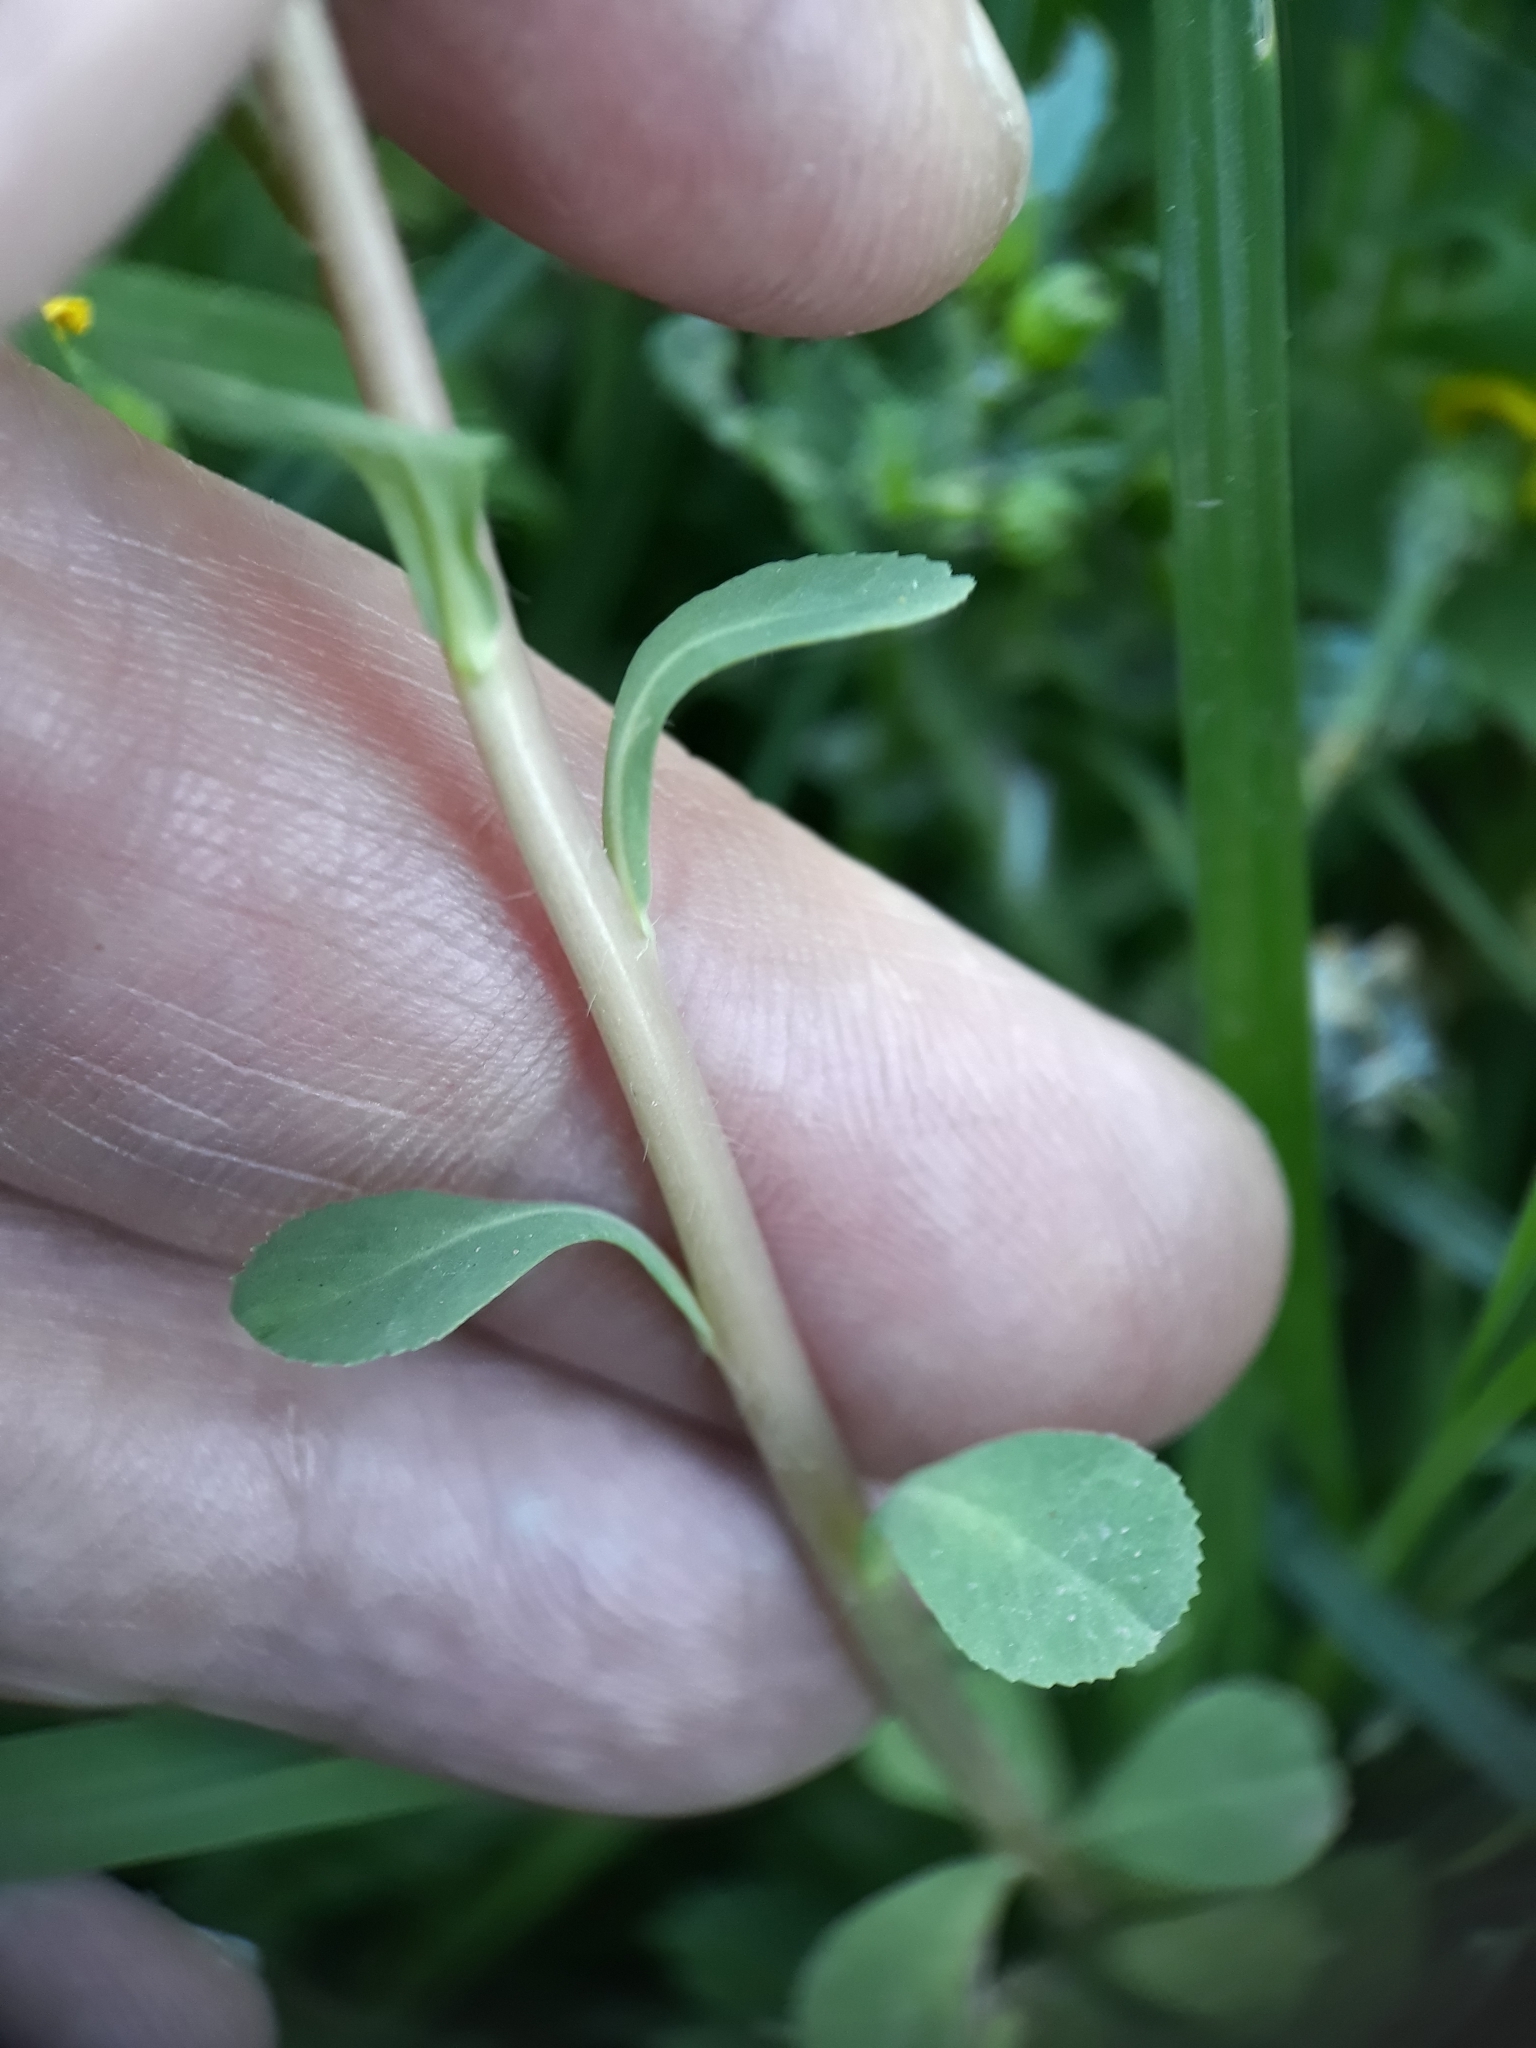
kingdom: Plantae
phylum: Tracheophyta
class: Magnoliopsida
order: Malpighiales
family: Euphorbiaceae
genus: Euphorbia
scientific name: Euphorbia helioscopia
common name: Sun spurge
